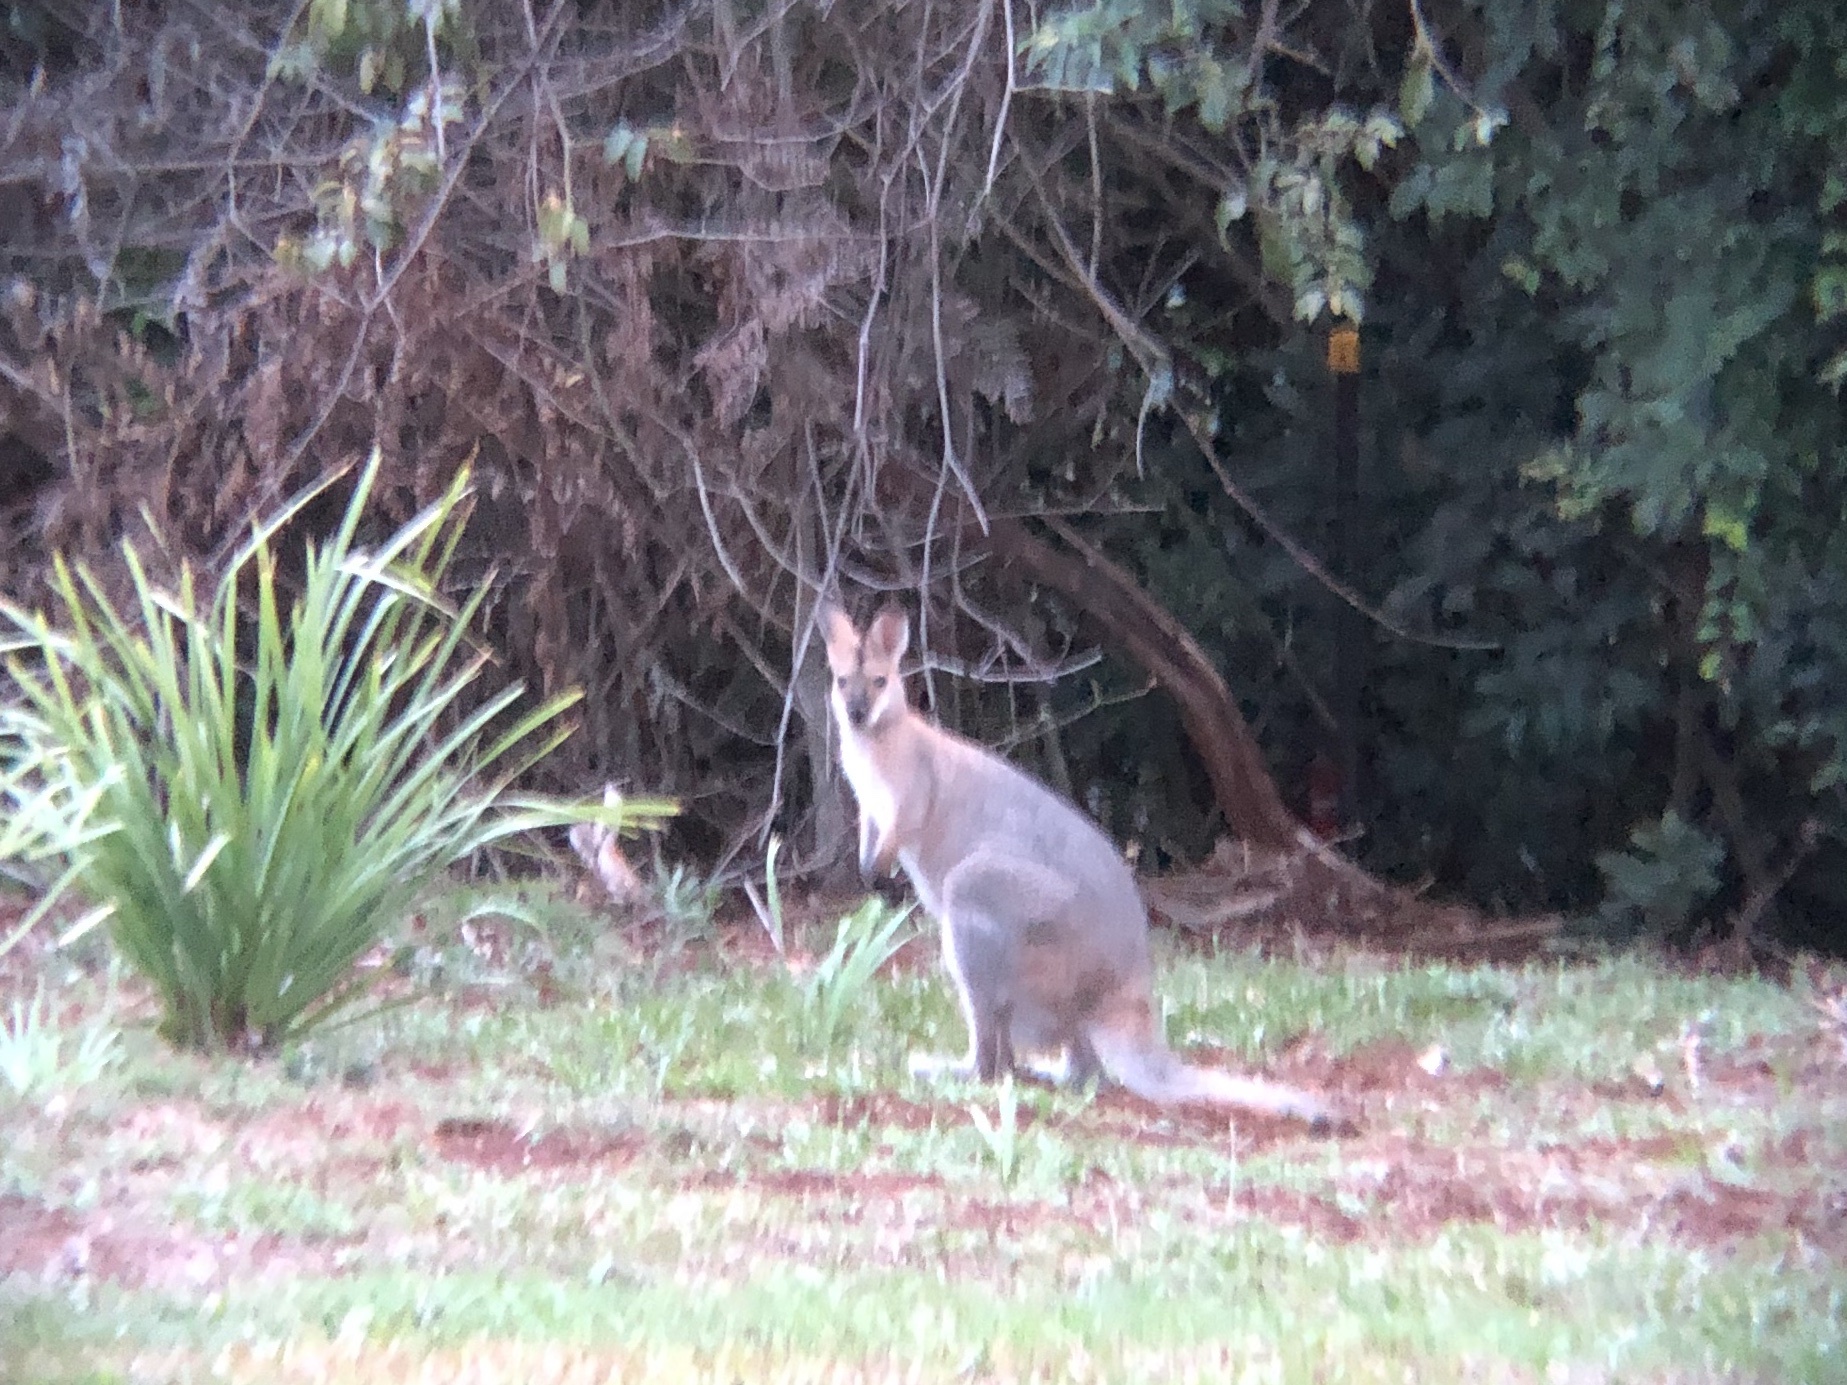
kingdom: Animalia
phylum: Chordata
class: Mammalia
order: Diprotodontia
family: Macropodidae
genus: Notamacropus
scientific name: Notamacropus rufogriseus
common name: Red-necked wallaby
